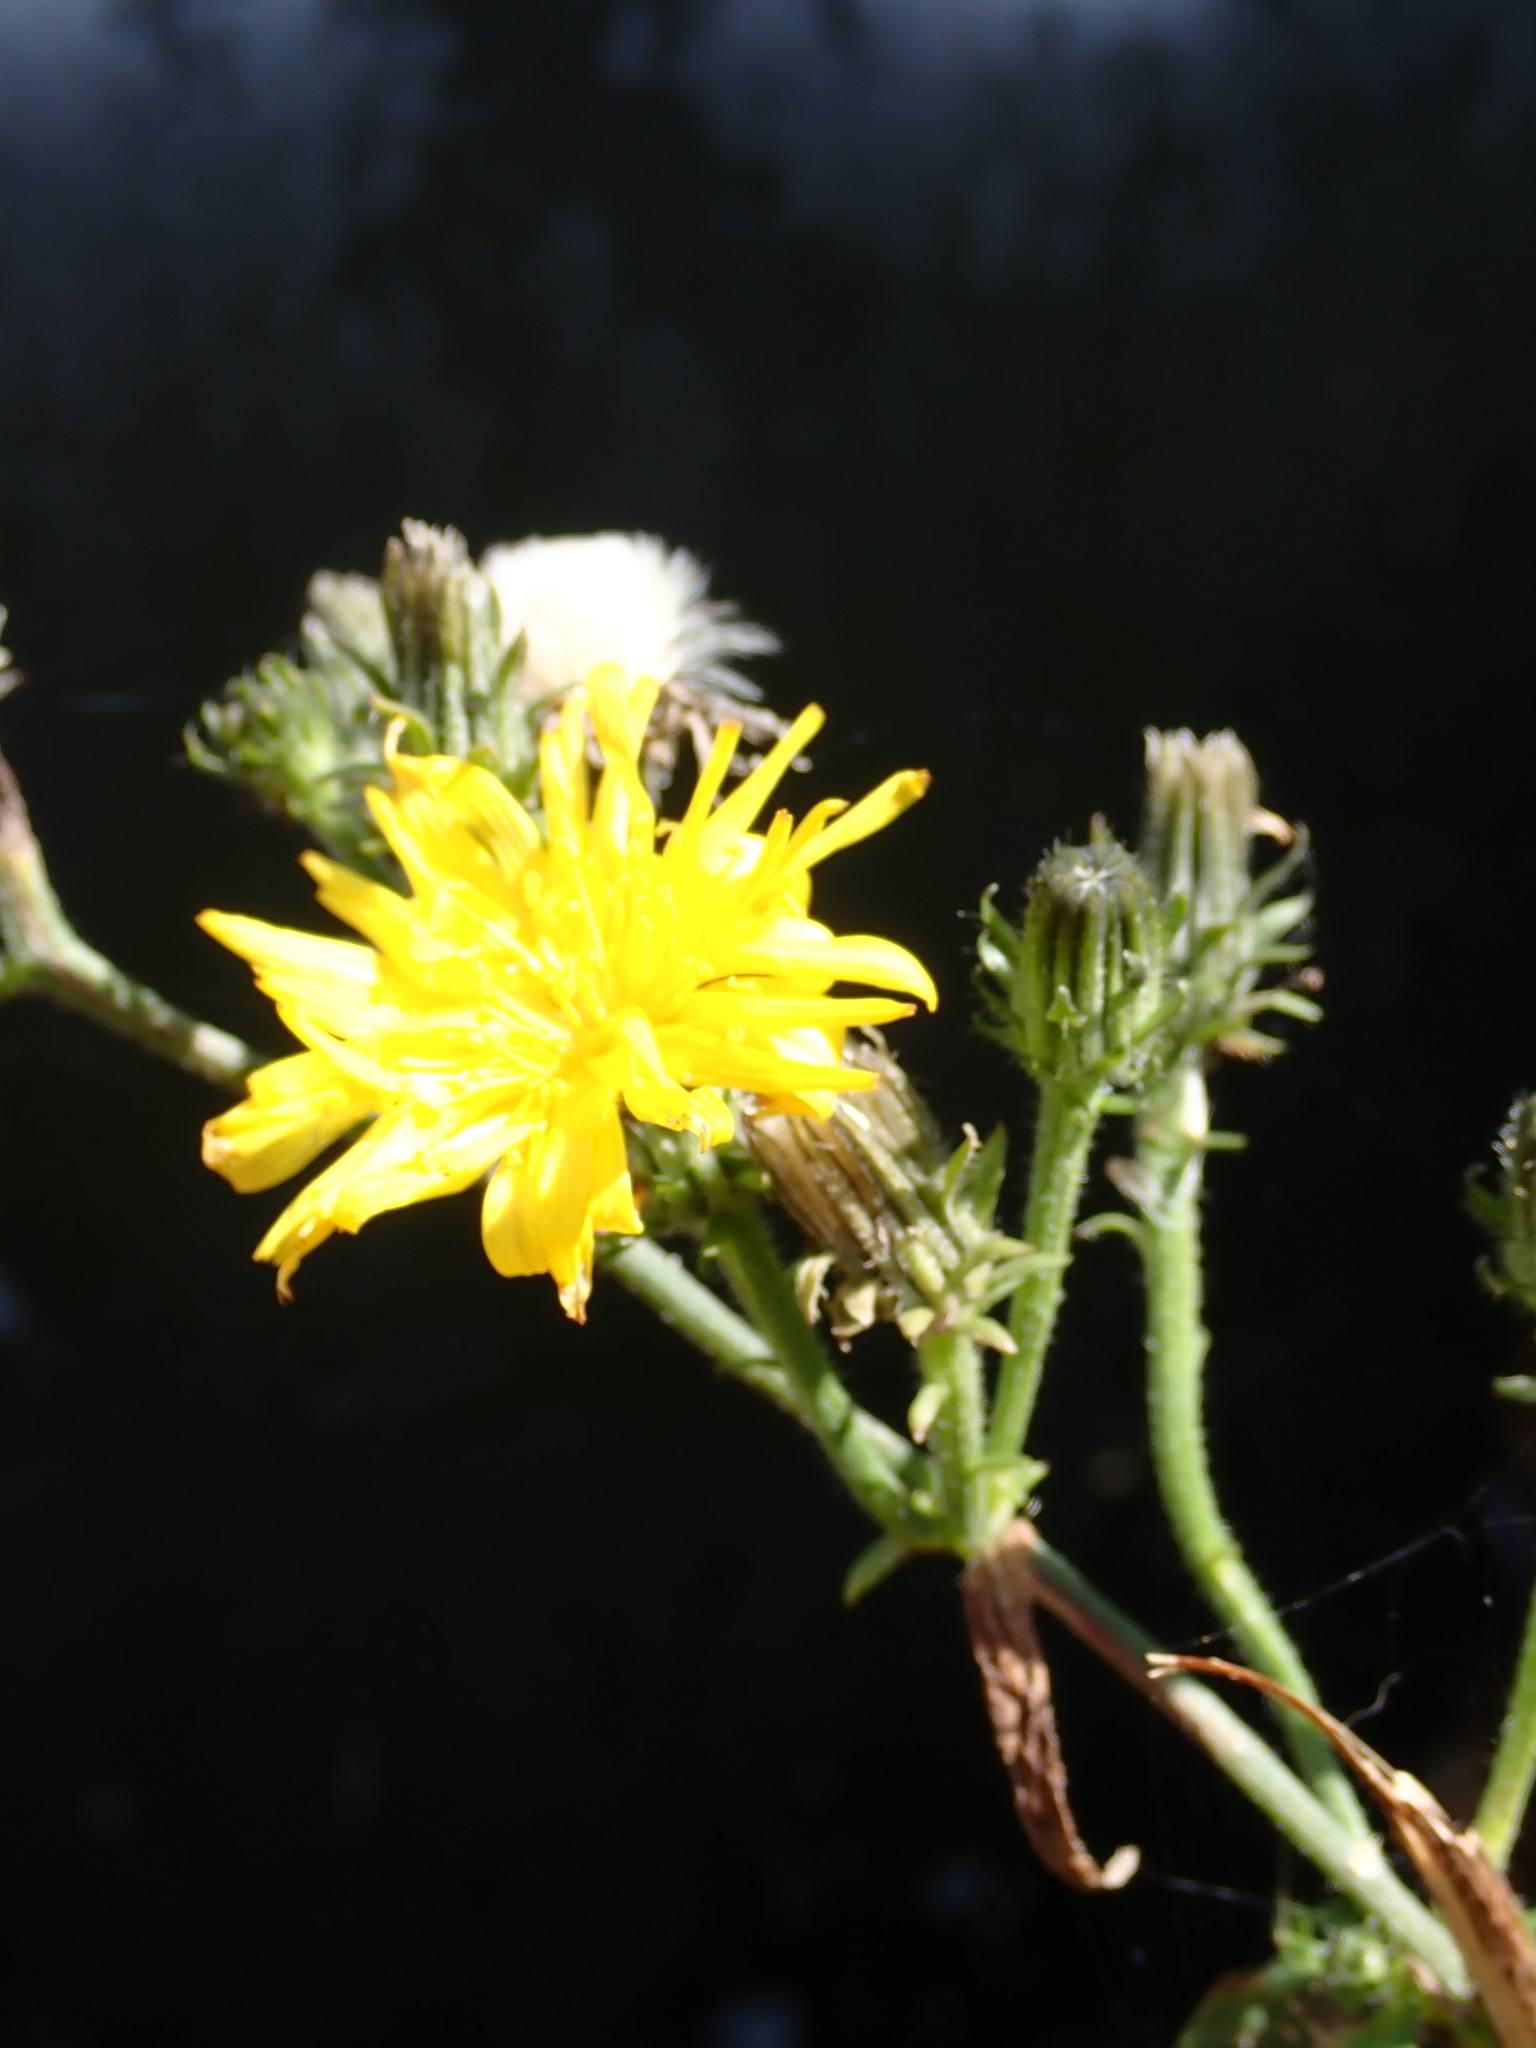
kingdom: Plantae
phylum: Tracheophyta
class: Magnoliopsida
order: Asterales
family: Asteraceae
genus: Picris
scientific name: Picris hieracioides
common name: Hawkweed oxtongue
